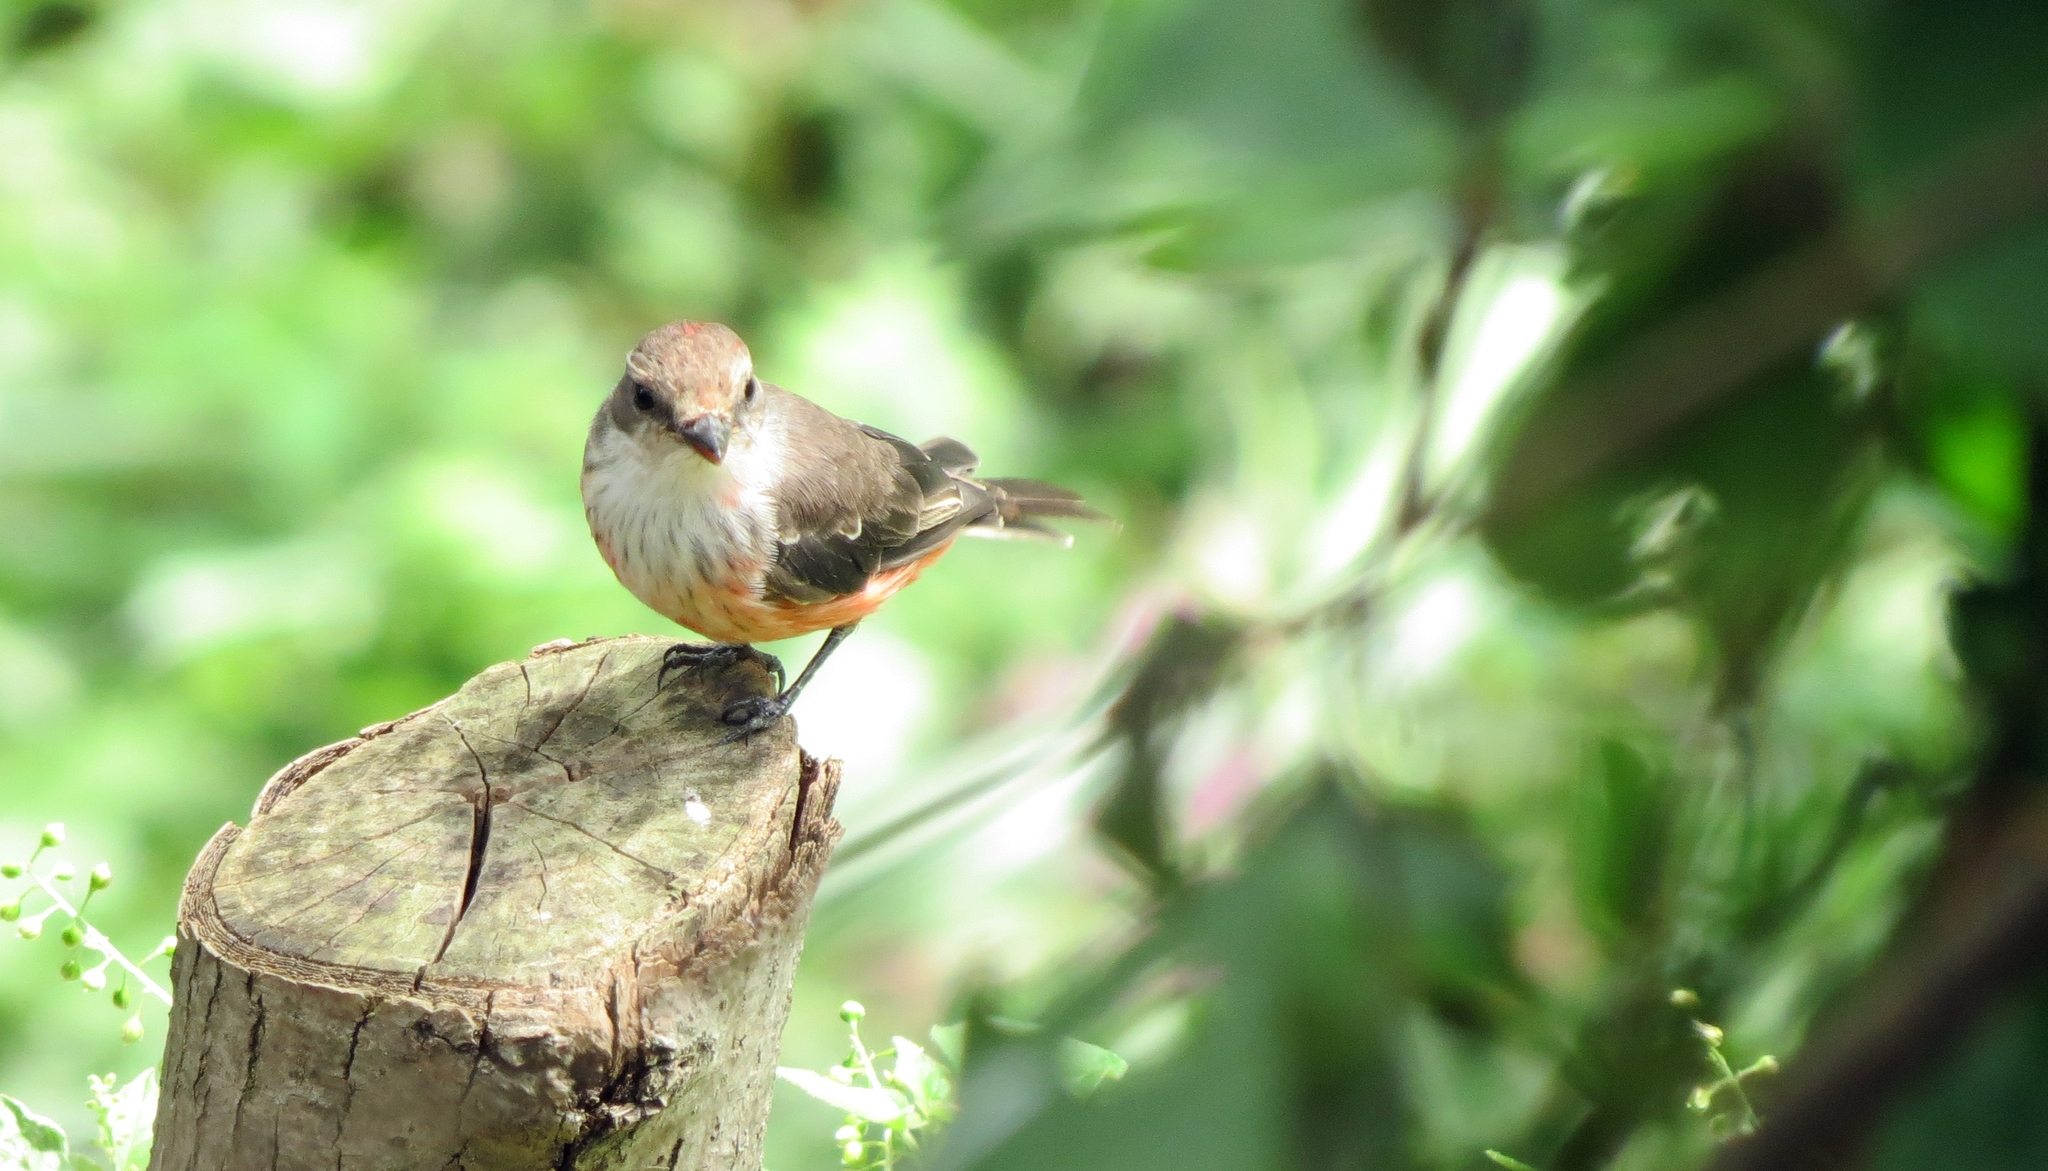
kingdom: Animalia
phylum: Chordata
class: Aves
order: Passeriformes
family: Tyrannidae
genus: Pyrocephalus
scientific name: Pyrocephalus rubinus
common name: Vermilion flycatcher
